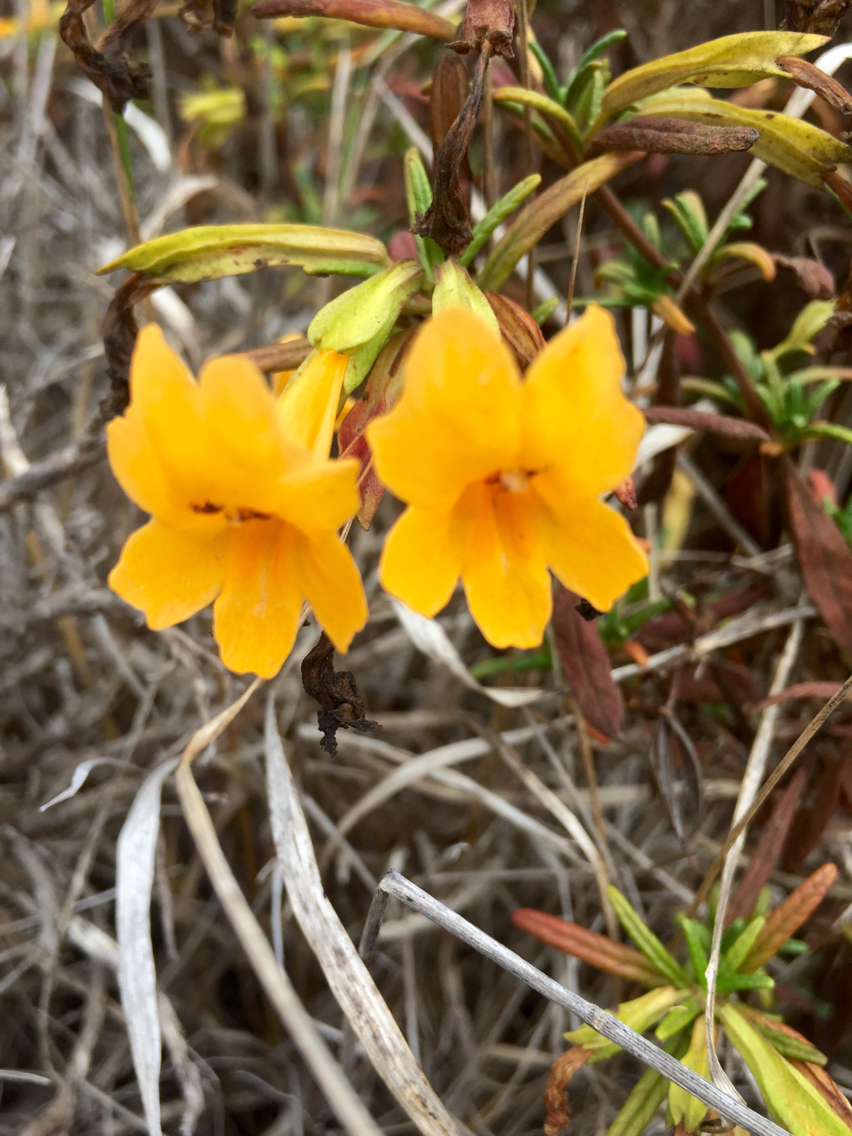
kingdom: Plantae
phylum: Tracheophyta
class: Magnoliopsida
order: Lamiales
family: Phrymaceae
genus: Diplacus
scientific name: Diplacus aurantiacus
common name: Bush monkey-flower
